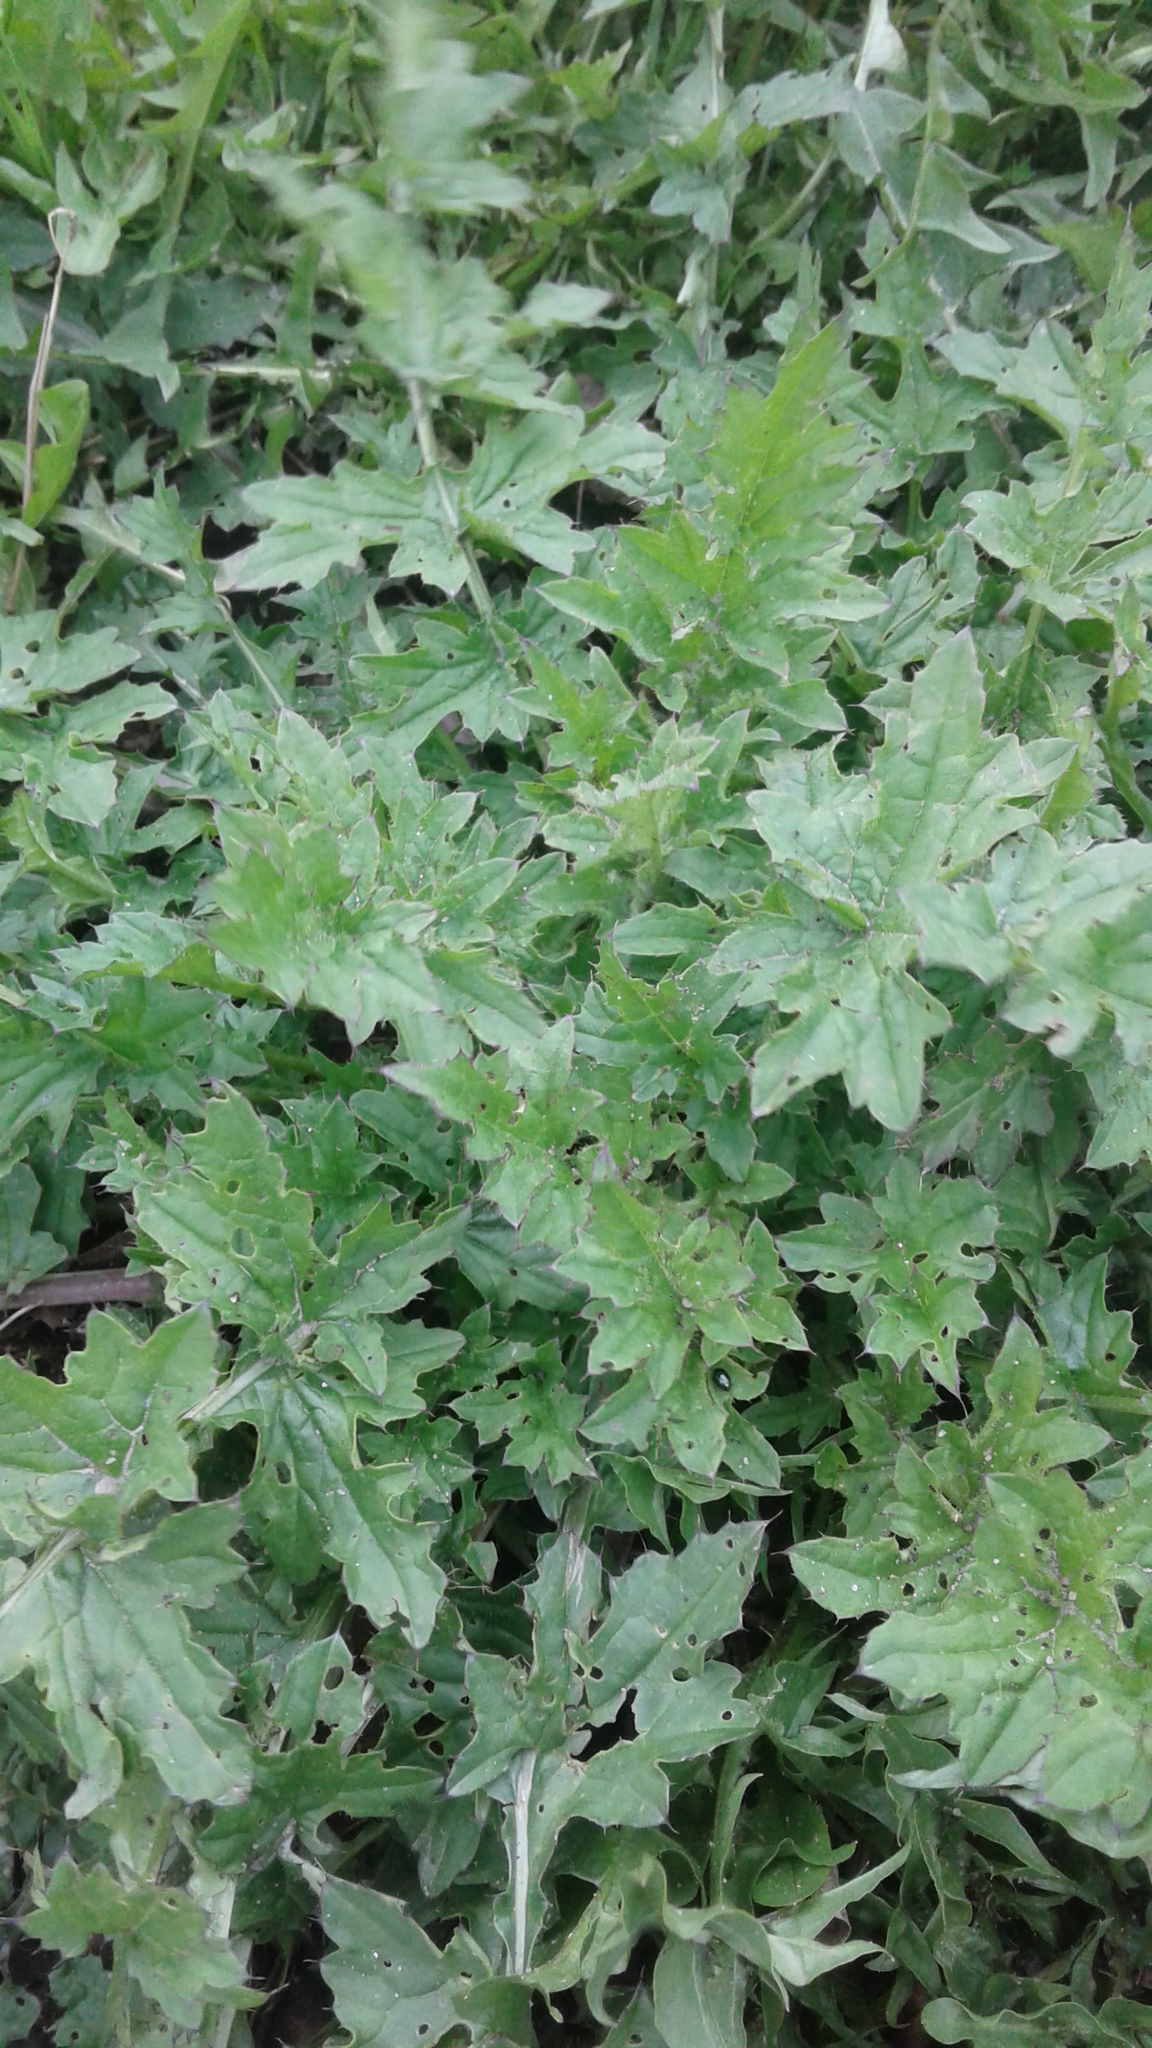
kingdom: Plantae
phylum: Tracheophyta
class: Magnoliopsida
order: Asterales
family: Asteraceae
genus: Carduus
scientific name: Carduus crispus
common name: Welted thistle
